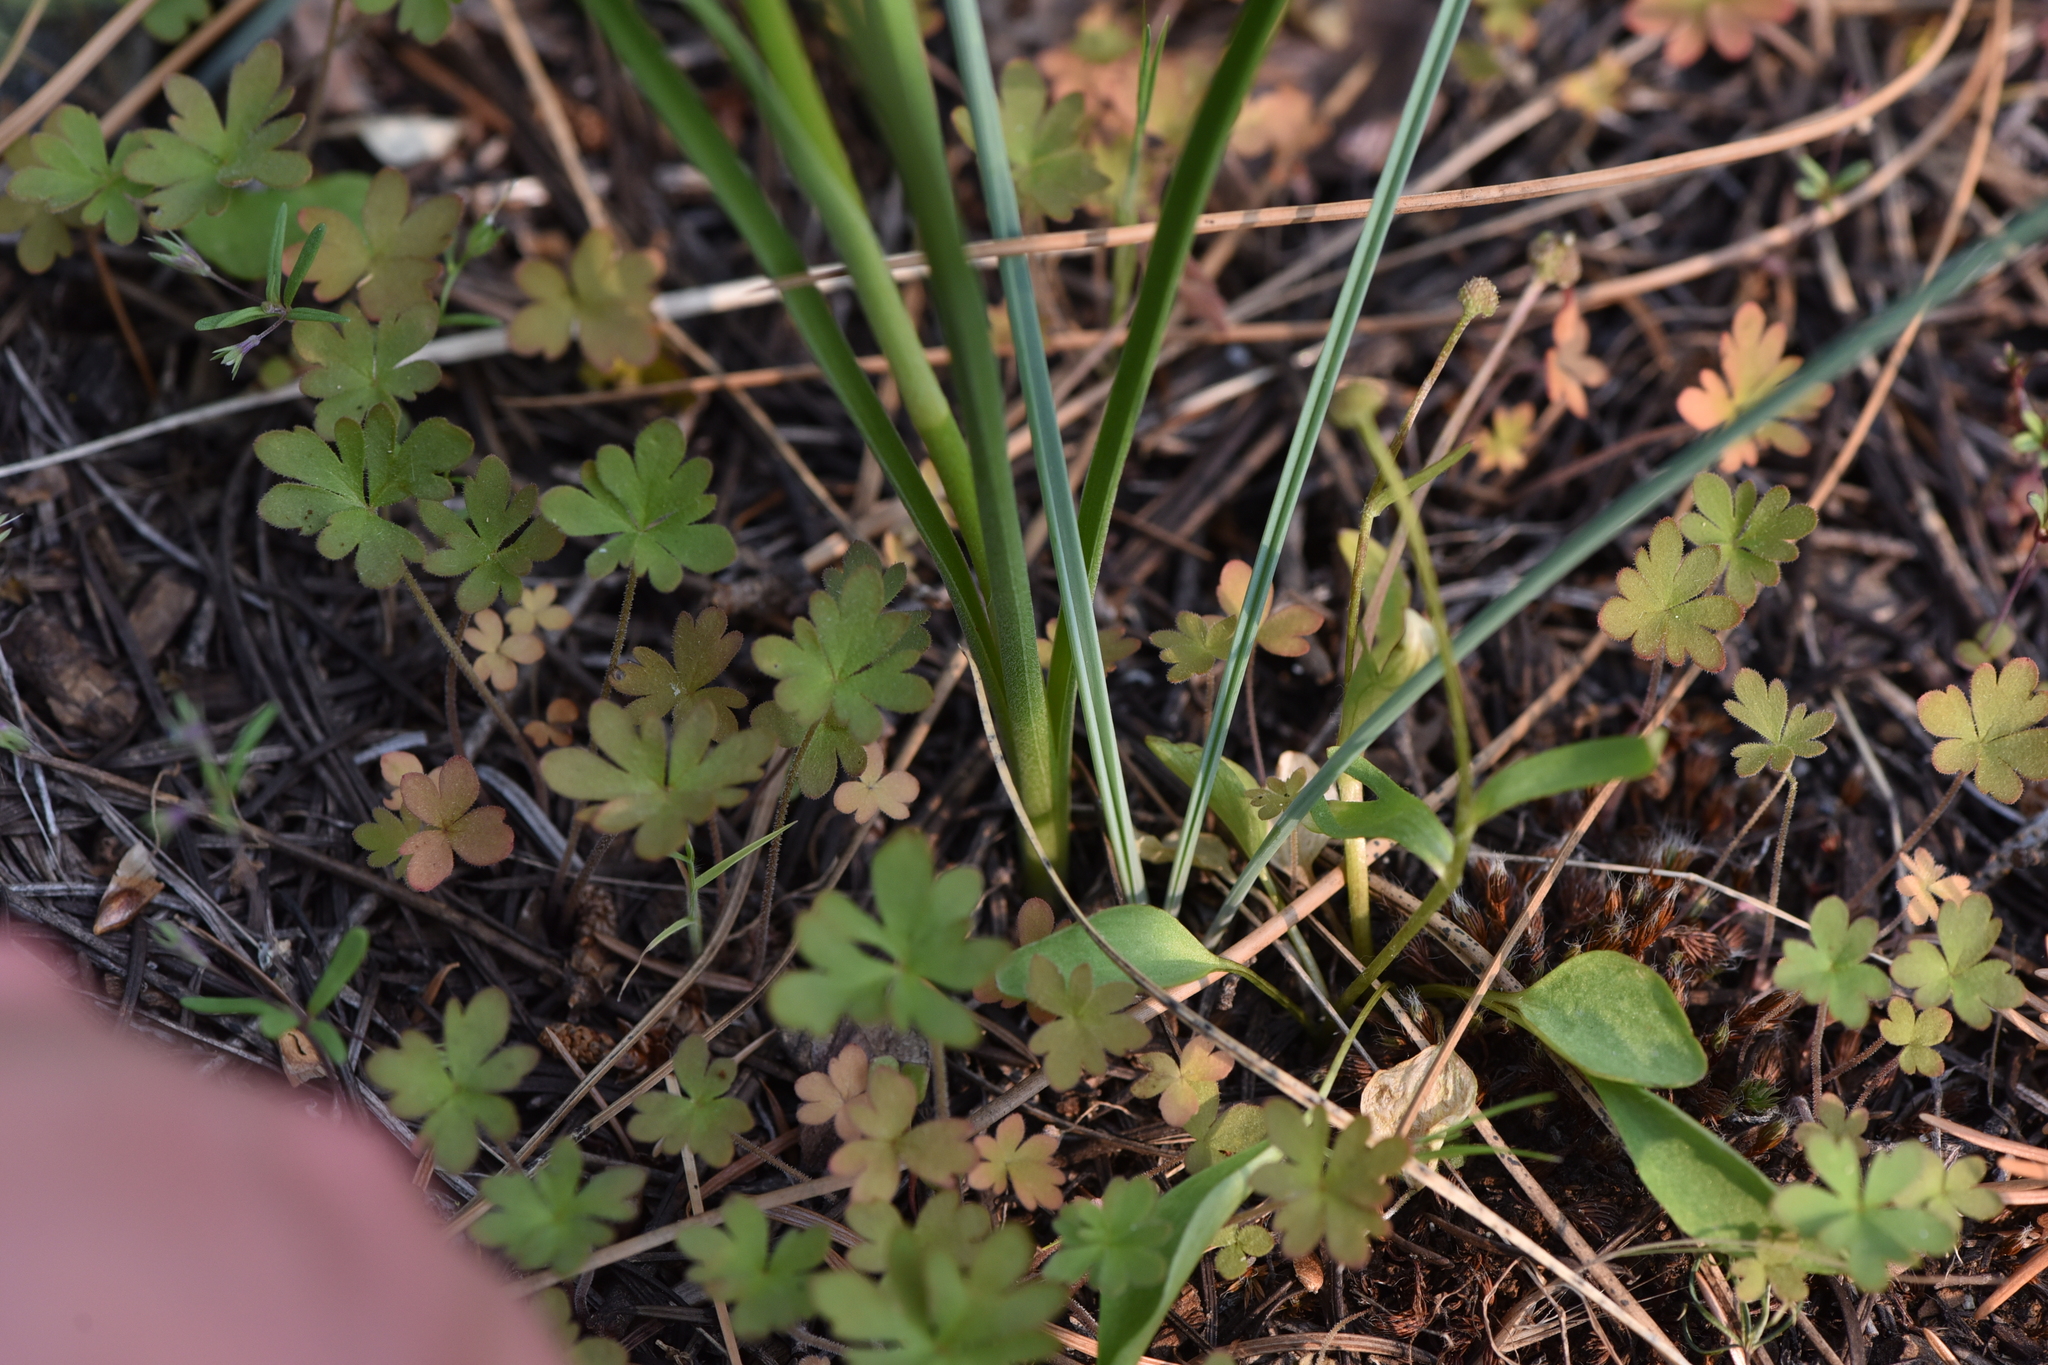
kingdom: Plantae
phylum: Tracheophyta
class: Liliopsida
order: Liliales
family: Melanthiaceae
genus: Toxicoscordion
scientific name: Toxicoscordion paniculatum
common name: Foothill death camas
